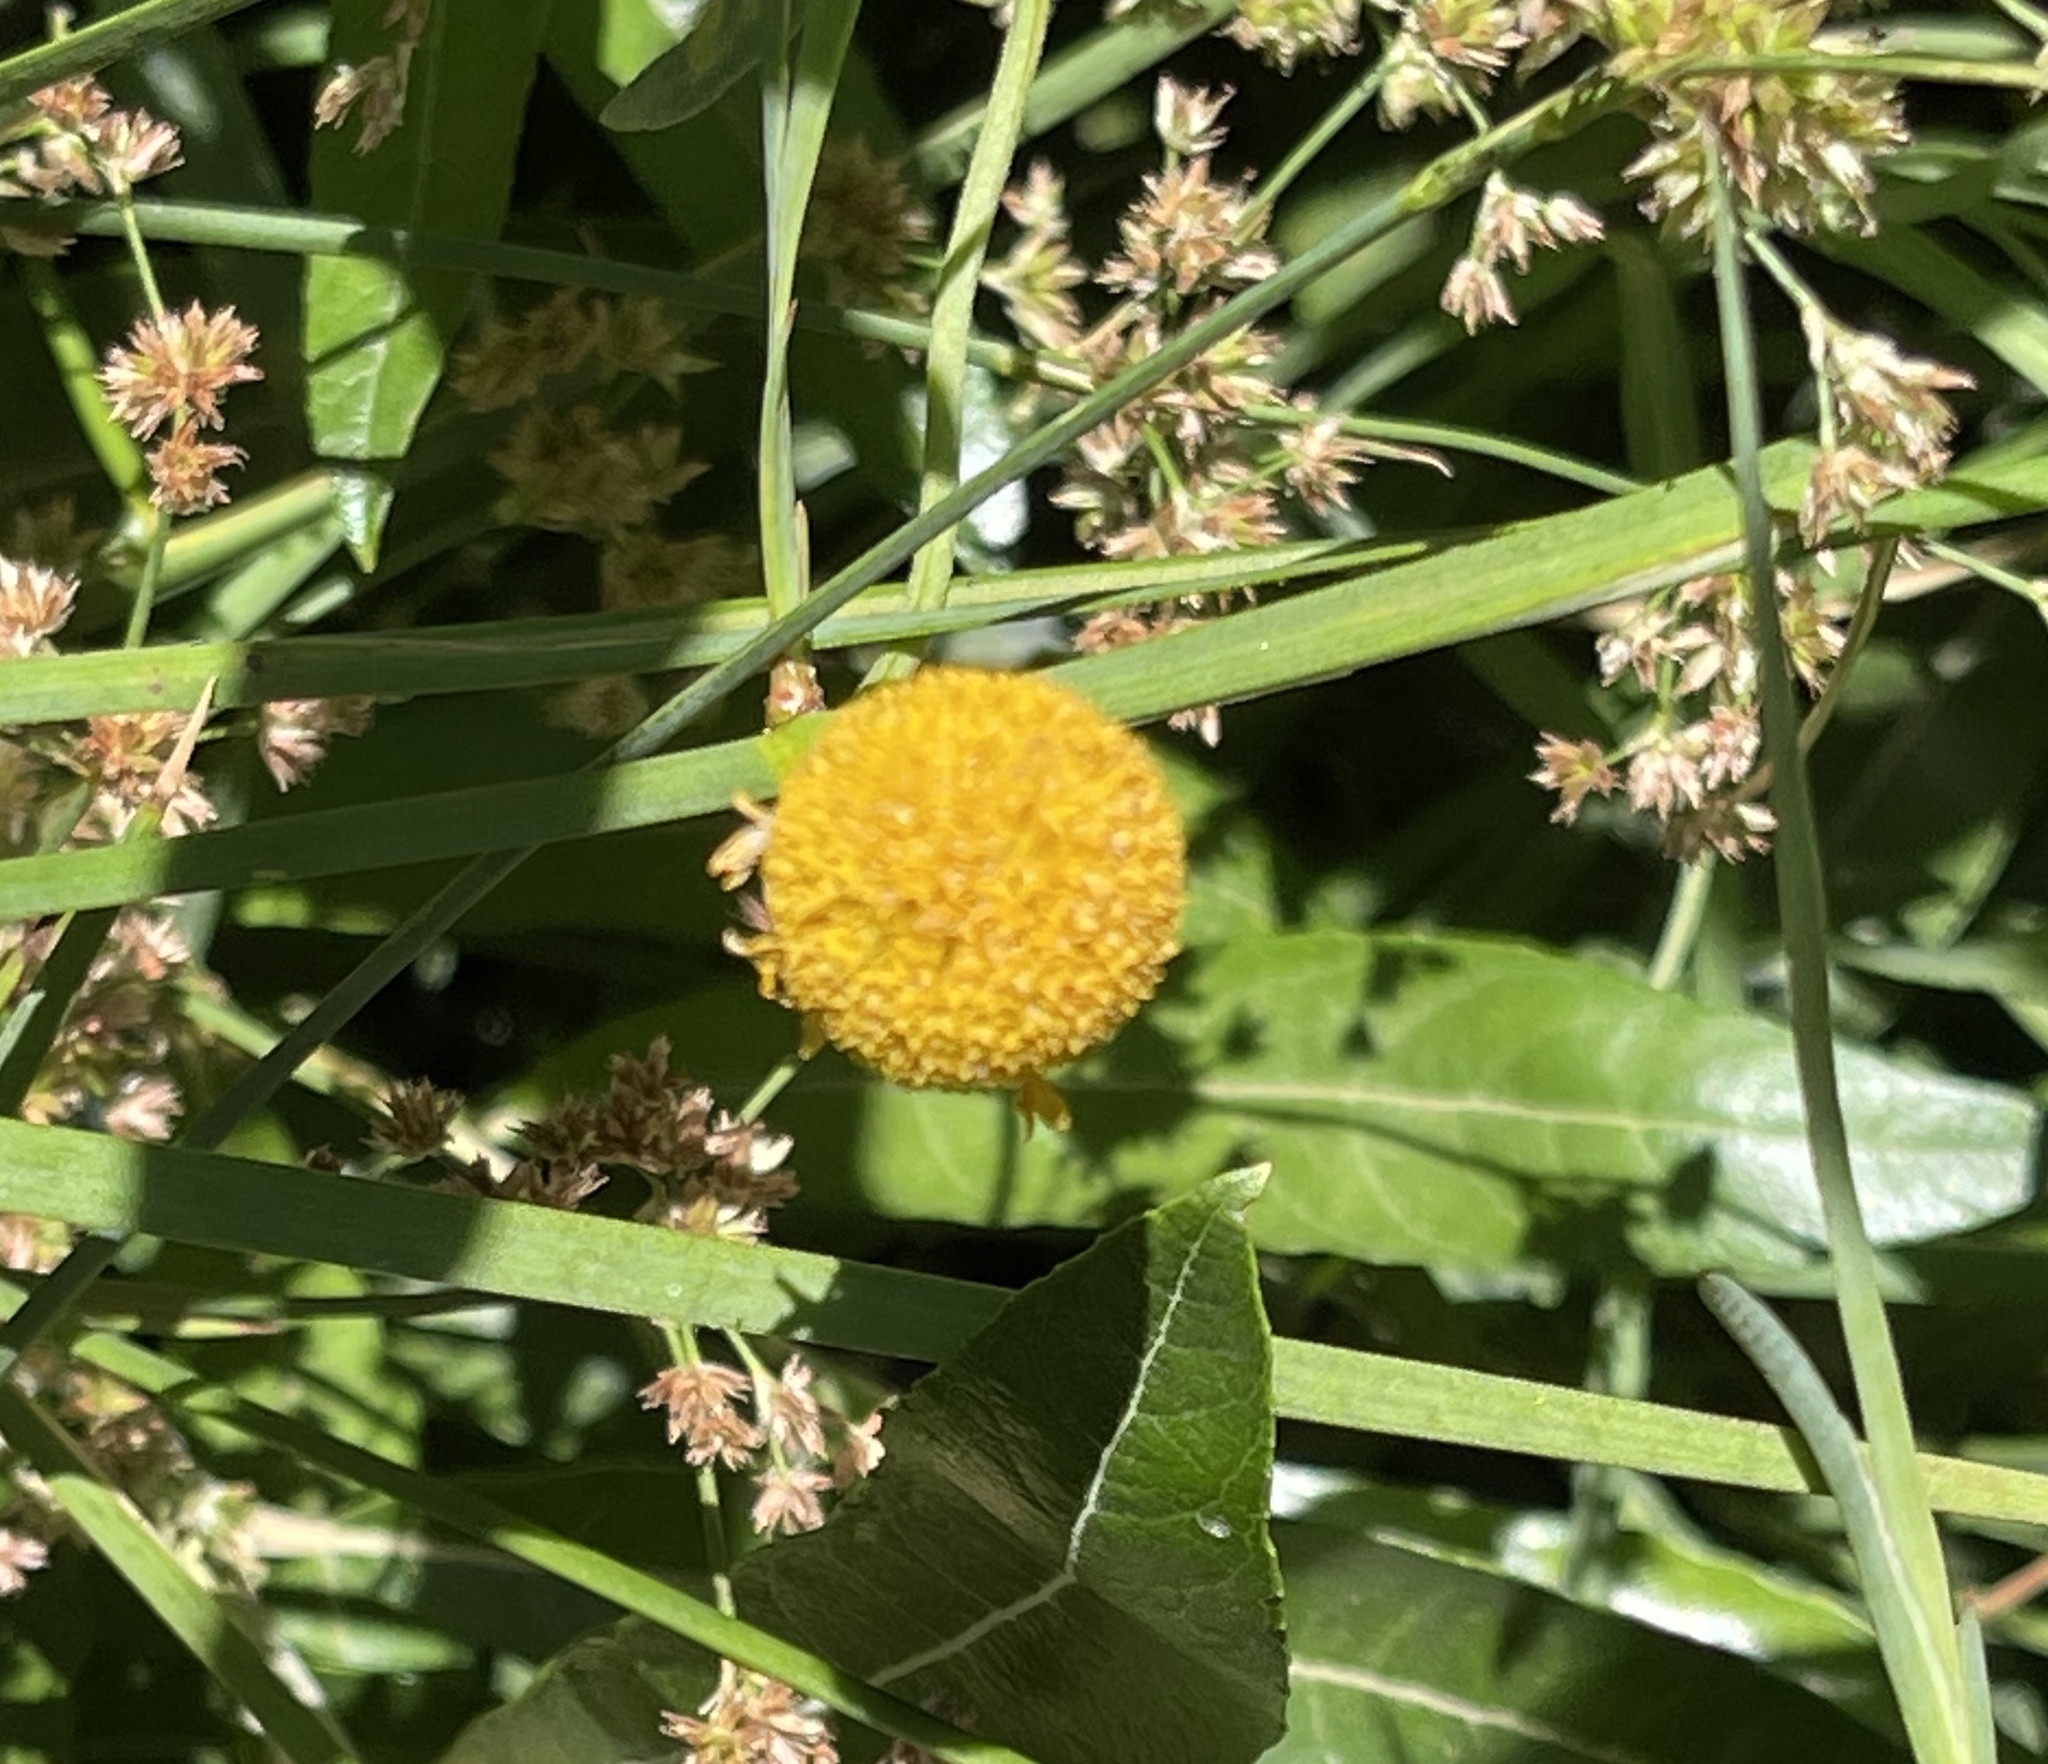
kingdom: Plantae
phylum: Tracheophyta
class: Magnoliopsida
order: Asterales
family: Asteraceae
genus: Helenium
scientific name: Helenium puberulum
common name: Sneezewort
